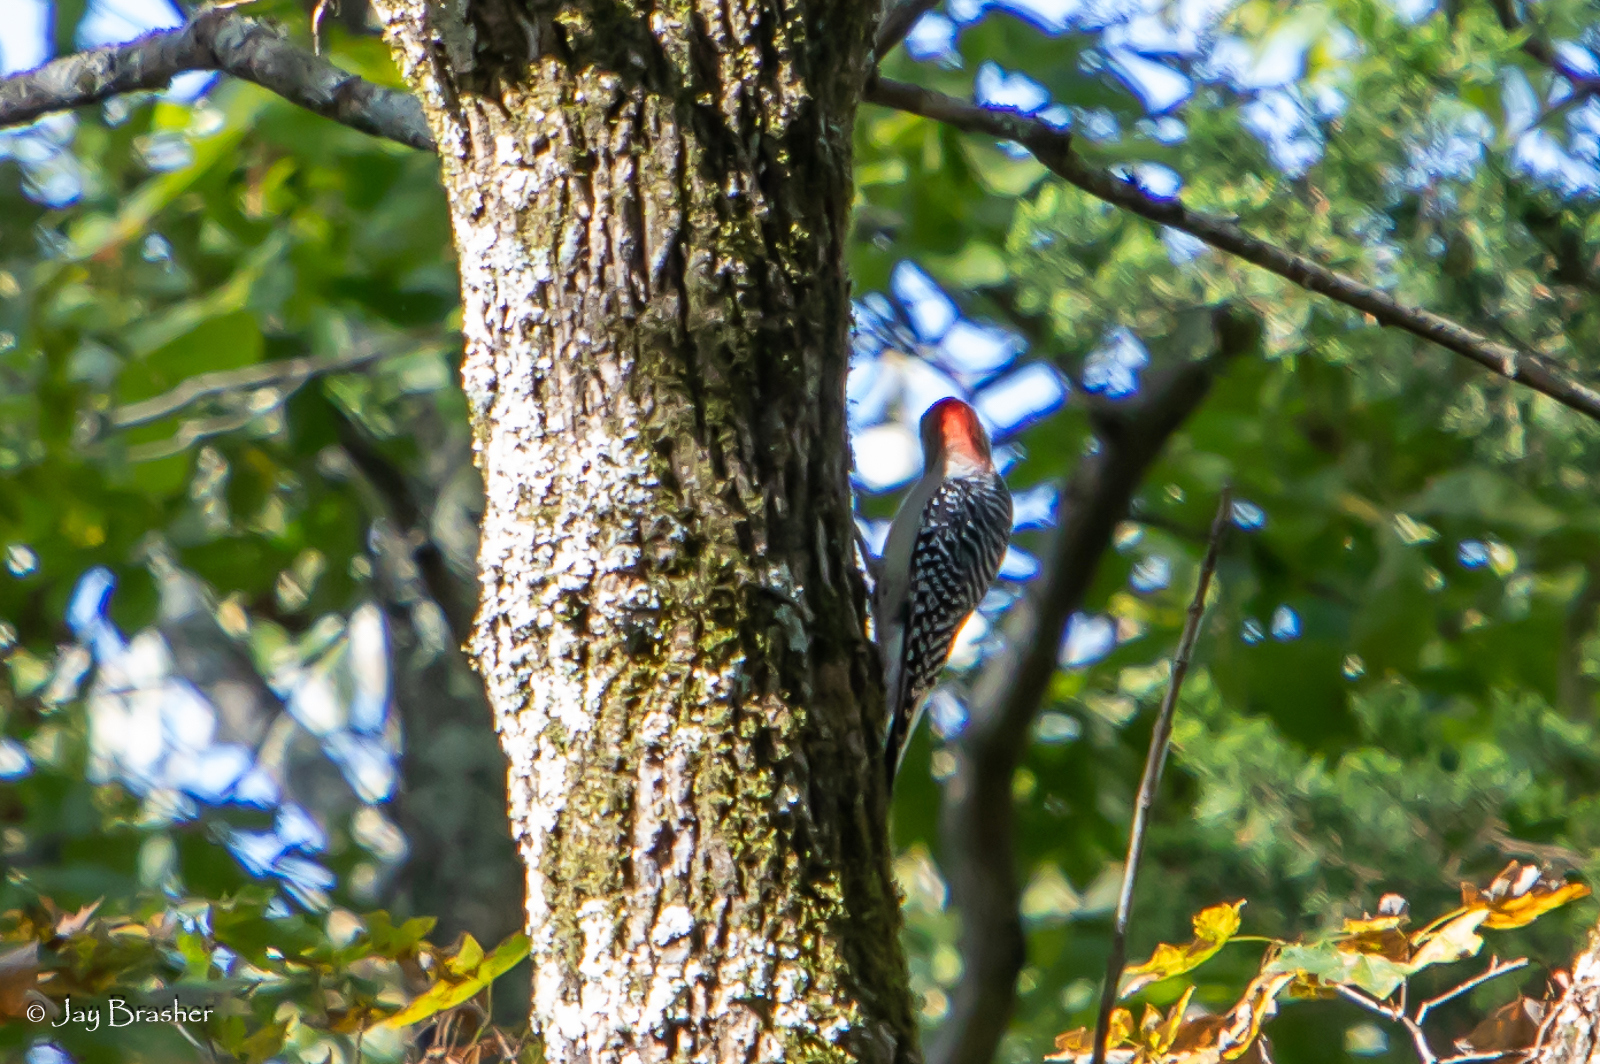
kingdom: Animalia
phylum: Chordata
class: Aves
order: Piciformes
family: Picidae
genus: Melanerpes
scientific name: Melanerpes carolinus
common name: Red-bellied woodpecker
